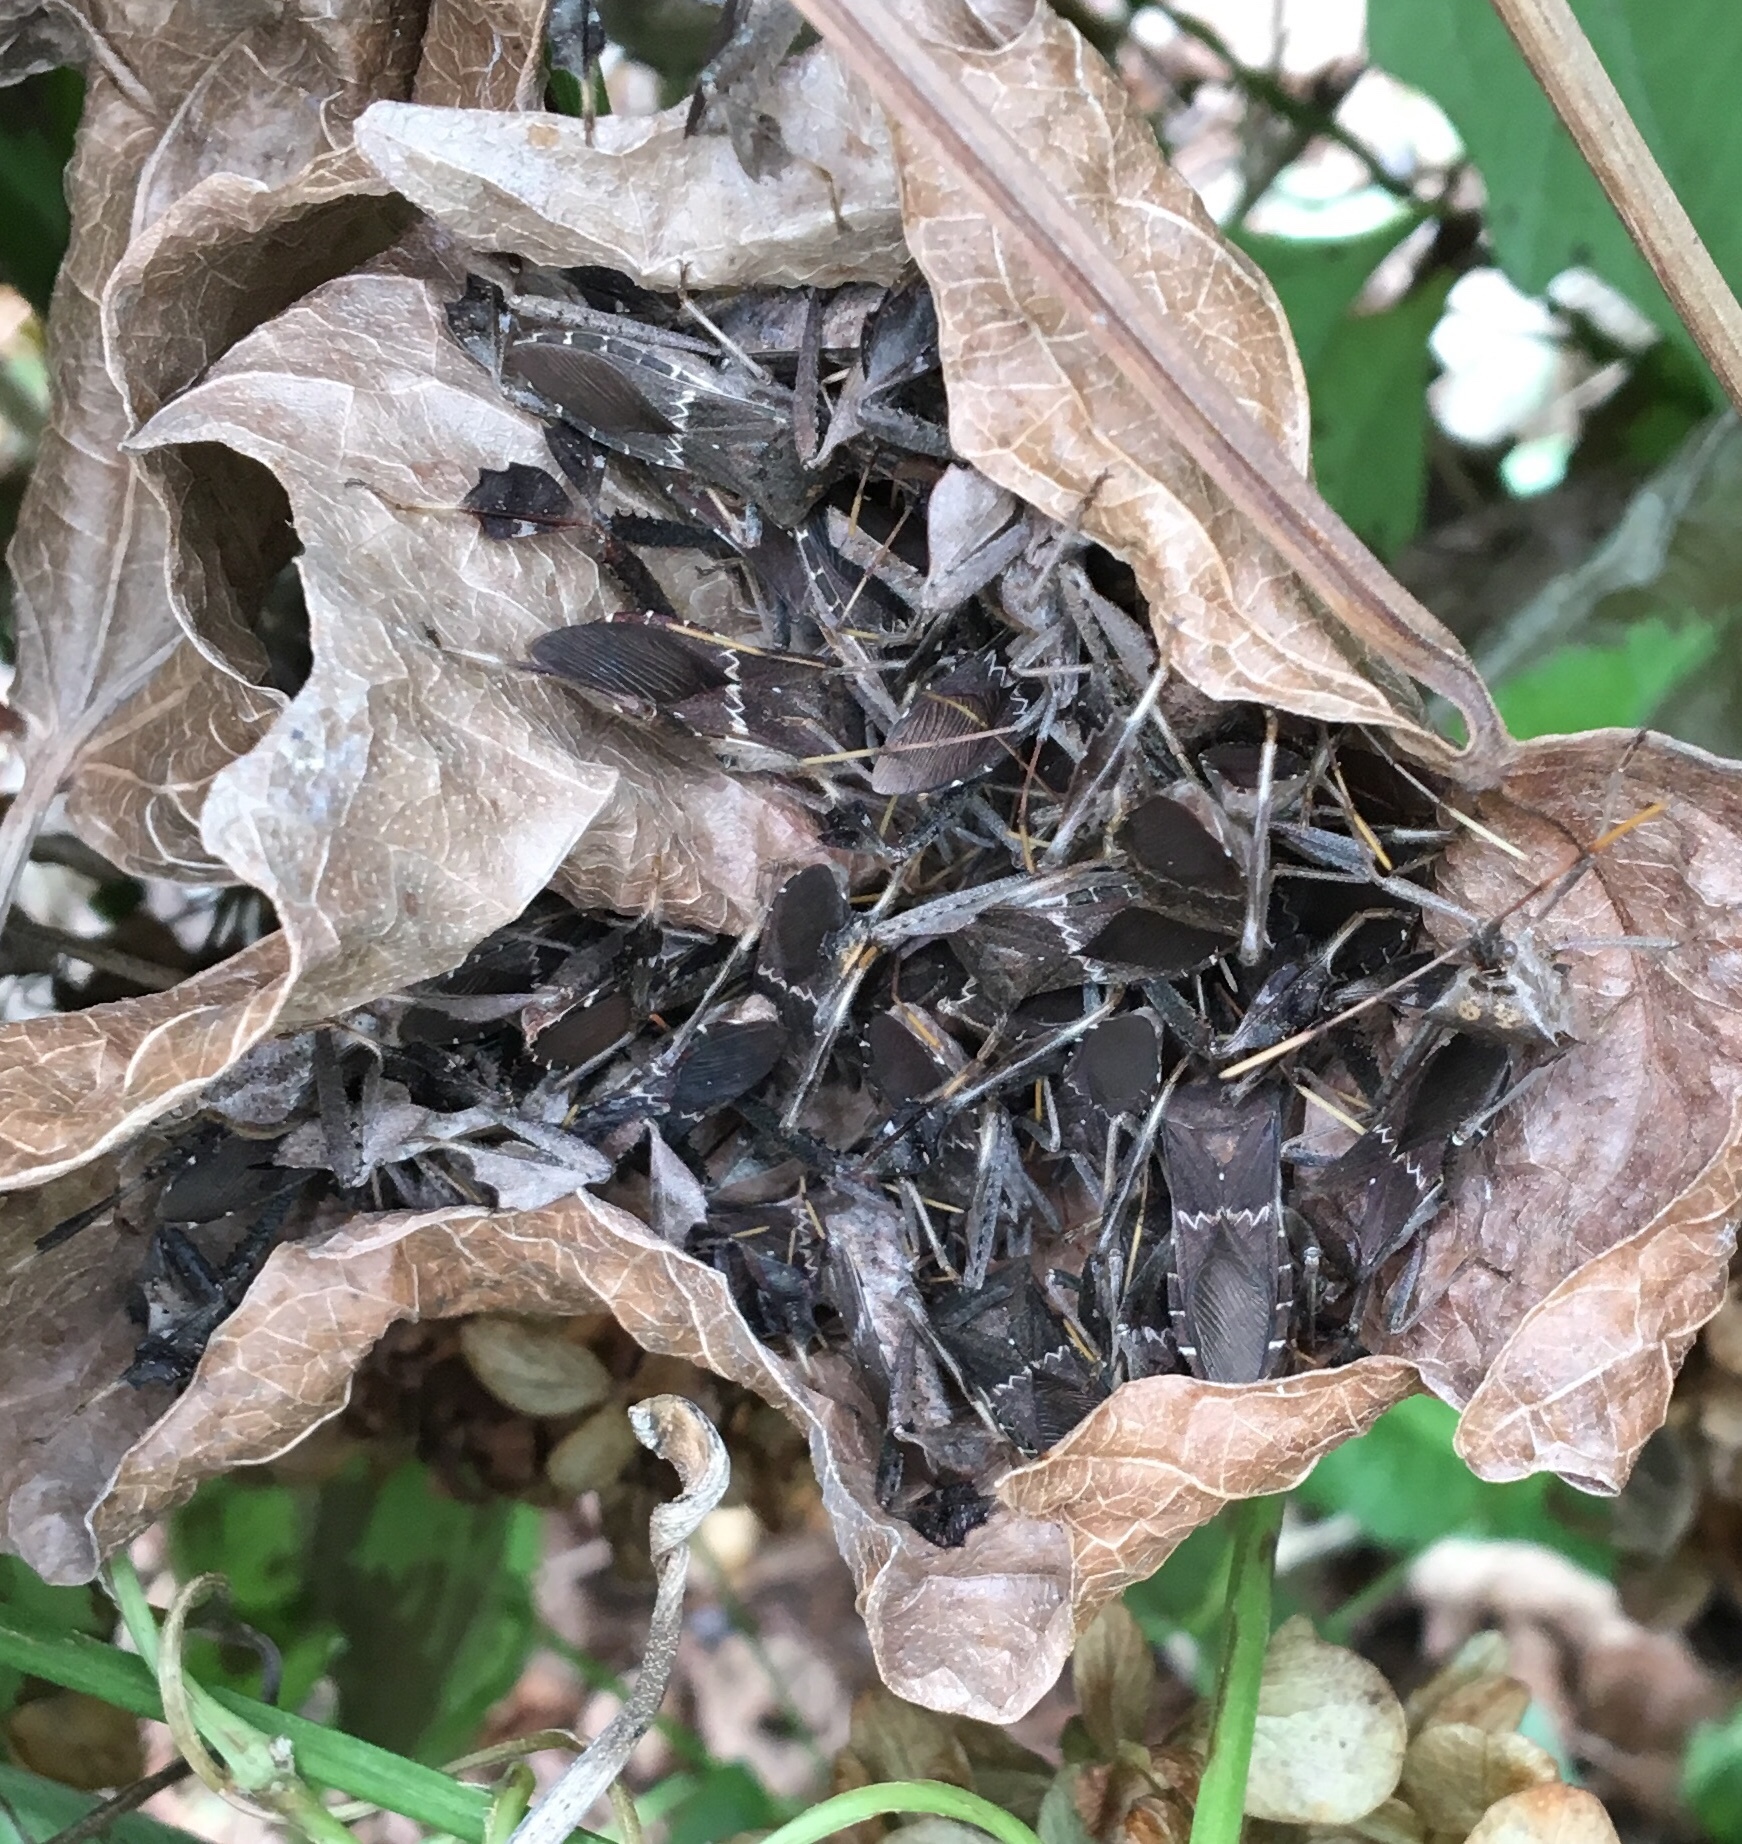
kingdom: Animalia
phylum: Arthropoda
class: Insecta
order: Hemiptera
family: Coreidae
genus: Leptoglossus
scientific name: Leptoglossus zonatus
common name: Large-legged bug
